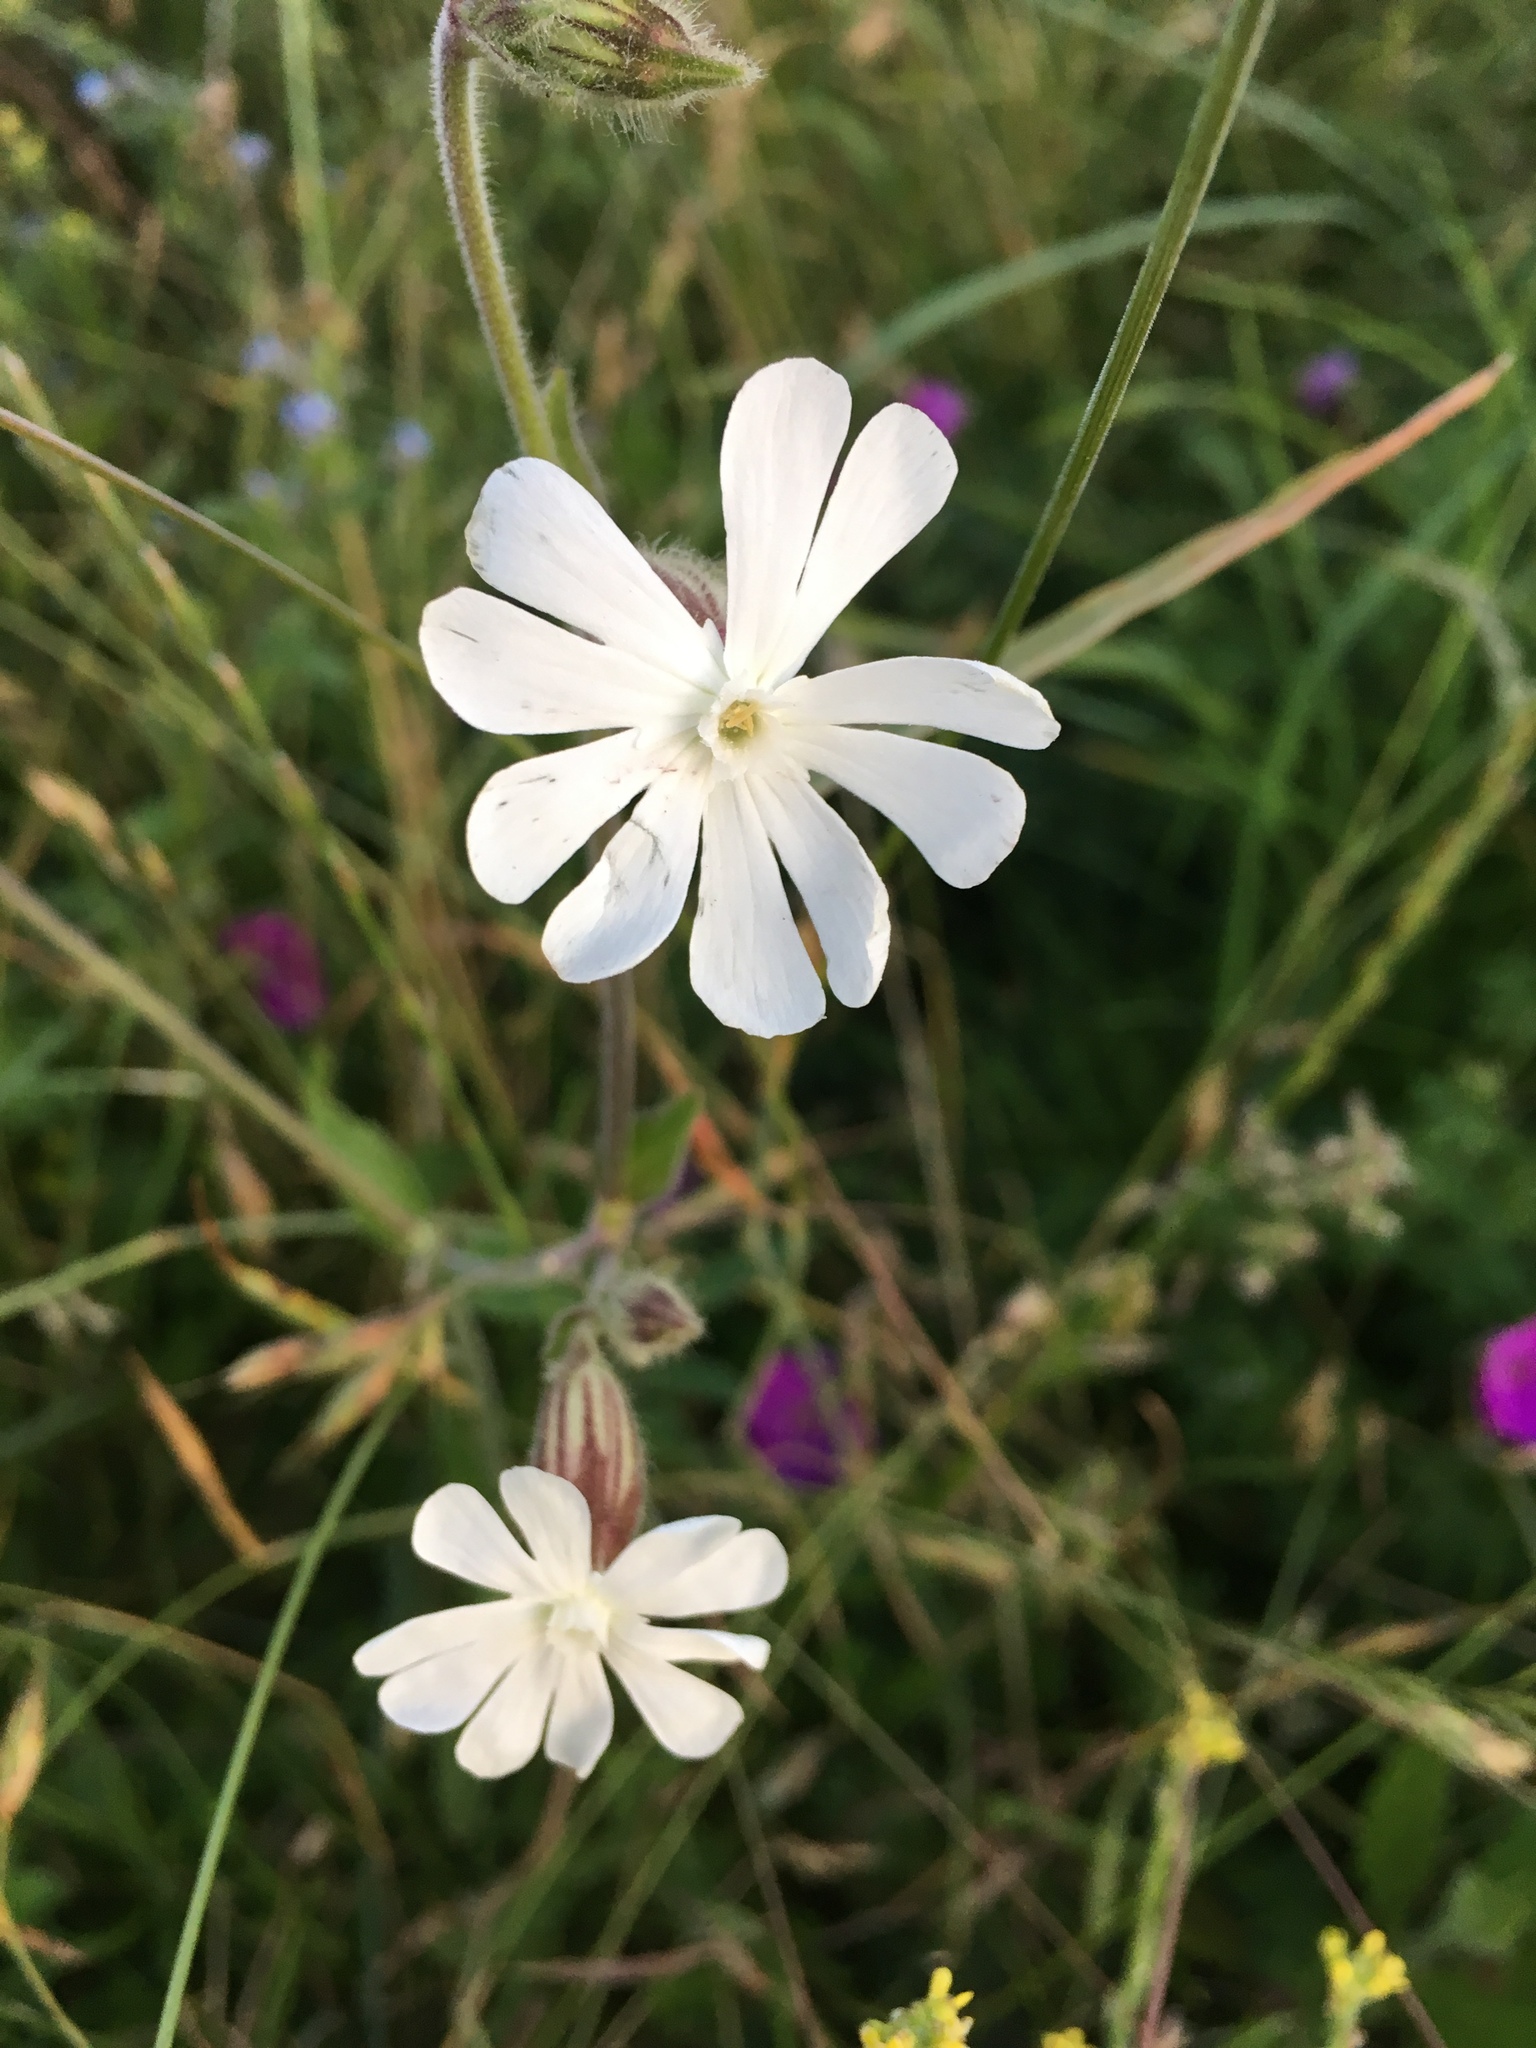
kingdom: Plantae
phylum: Tracheophyta
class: Magnoliopsida
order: Caryophyllales
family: Caryophyllaceae
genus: Silene
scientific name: Silene latifolia
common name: White campion
